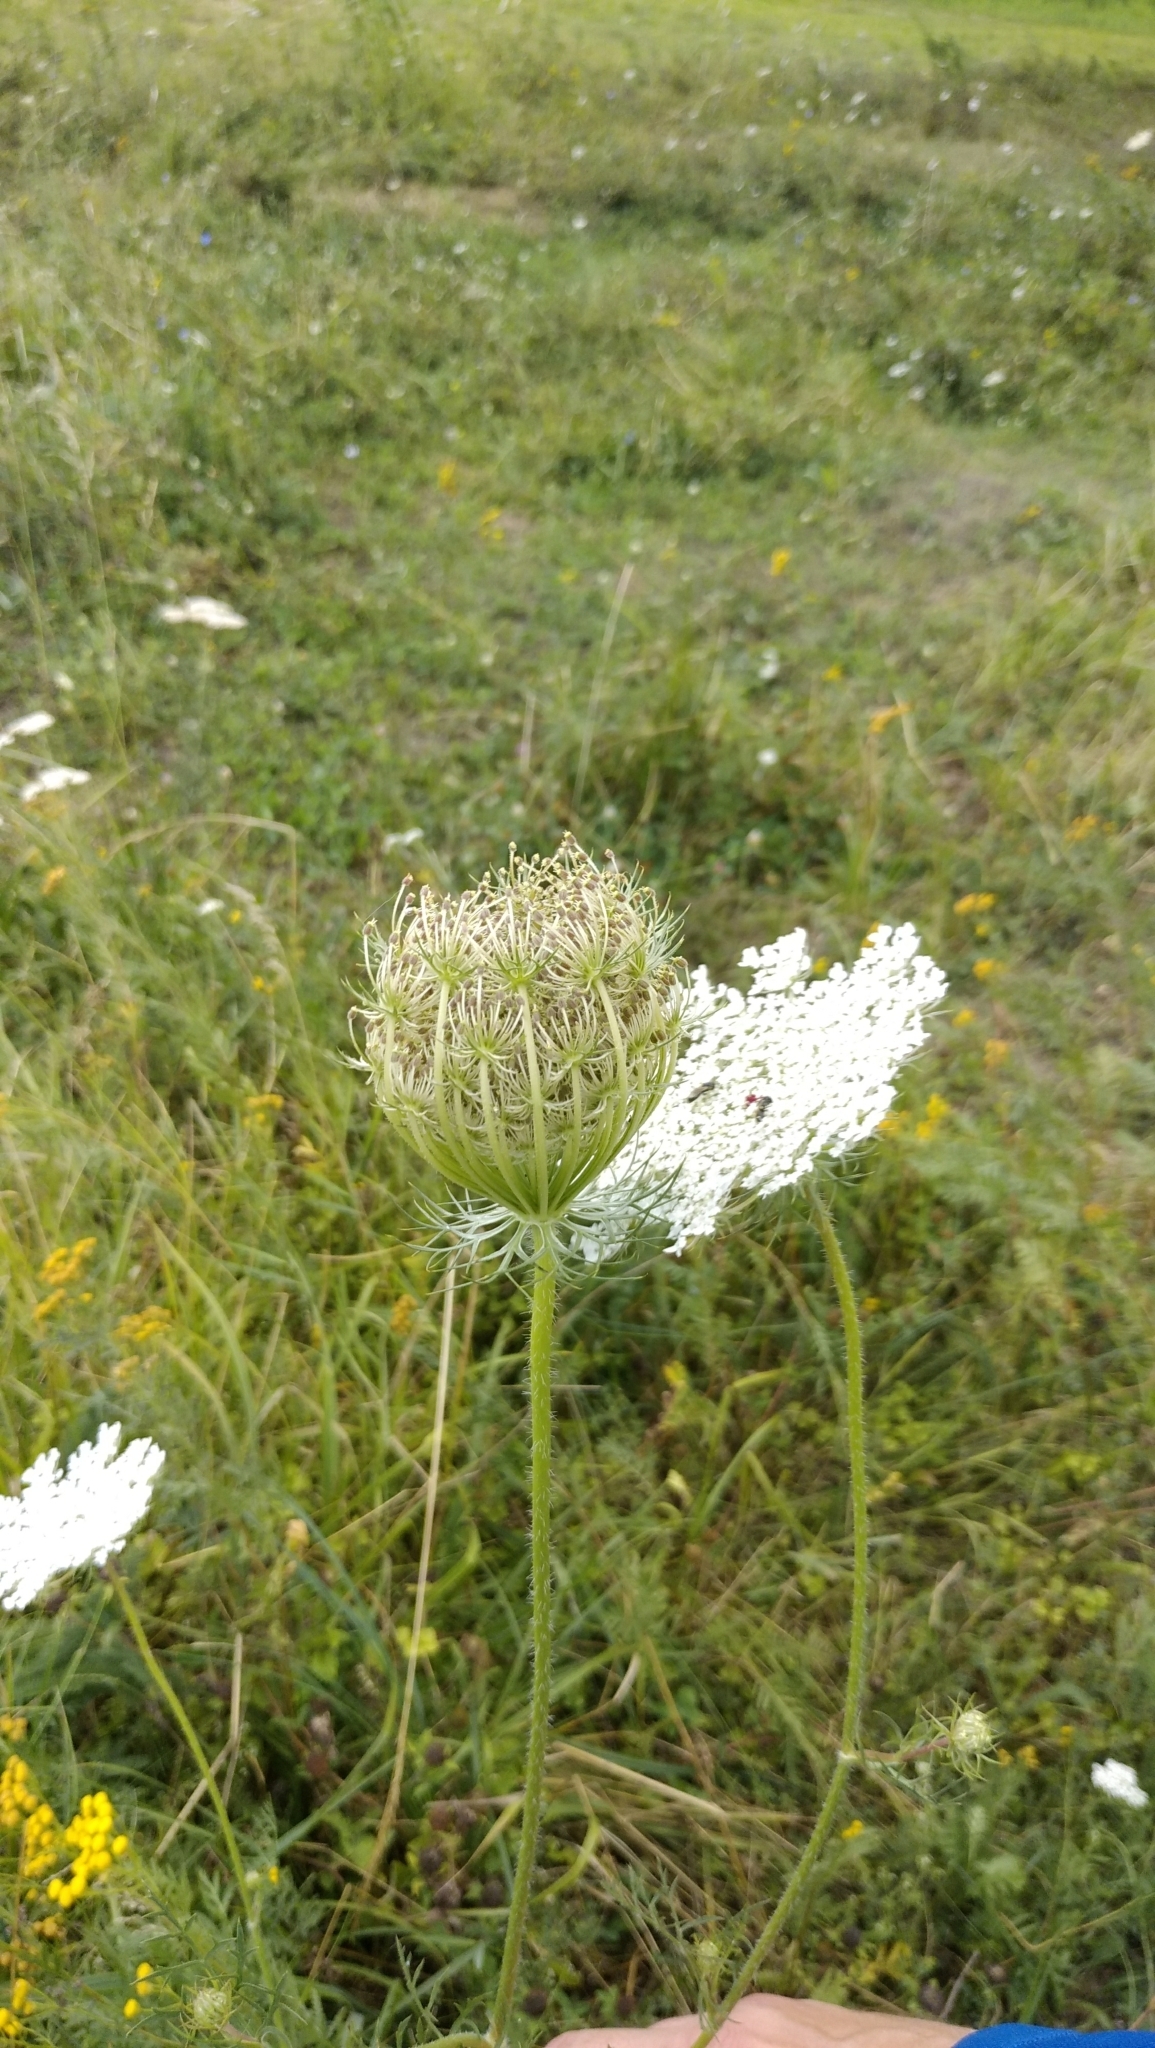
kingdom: Plantae
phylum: Tracheophyta
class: Magnoliopsida
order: Apiales
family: Apiaceae
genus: Daucus
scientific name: Daucus carota
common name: Wild carrot
